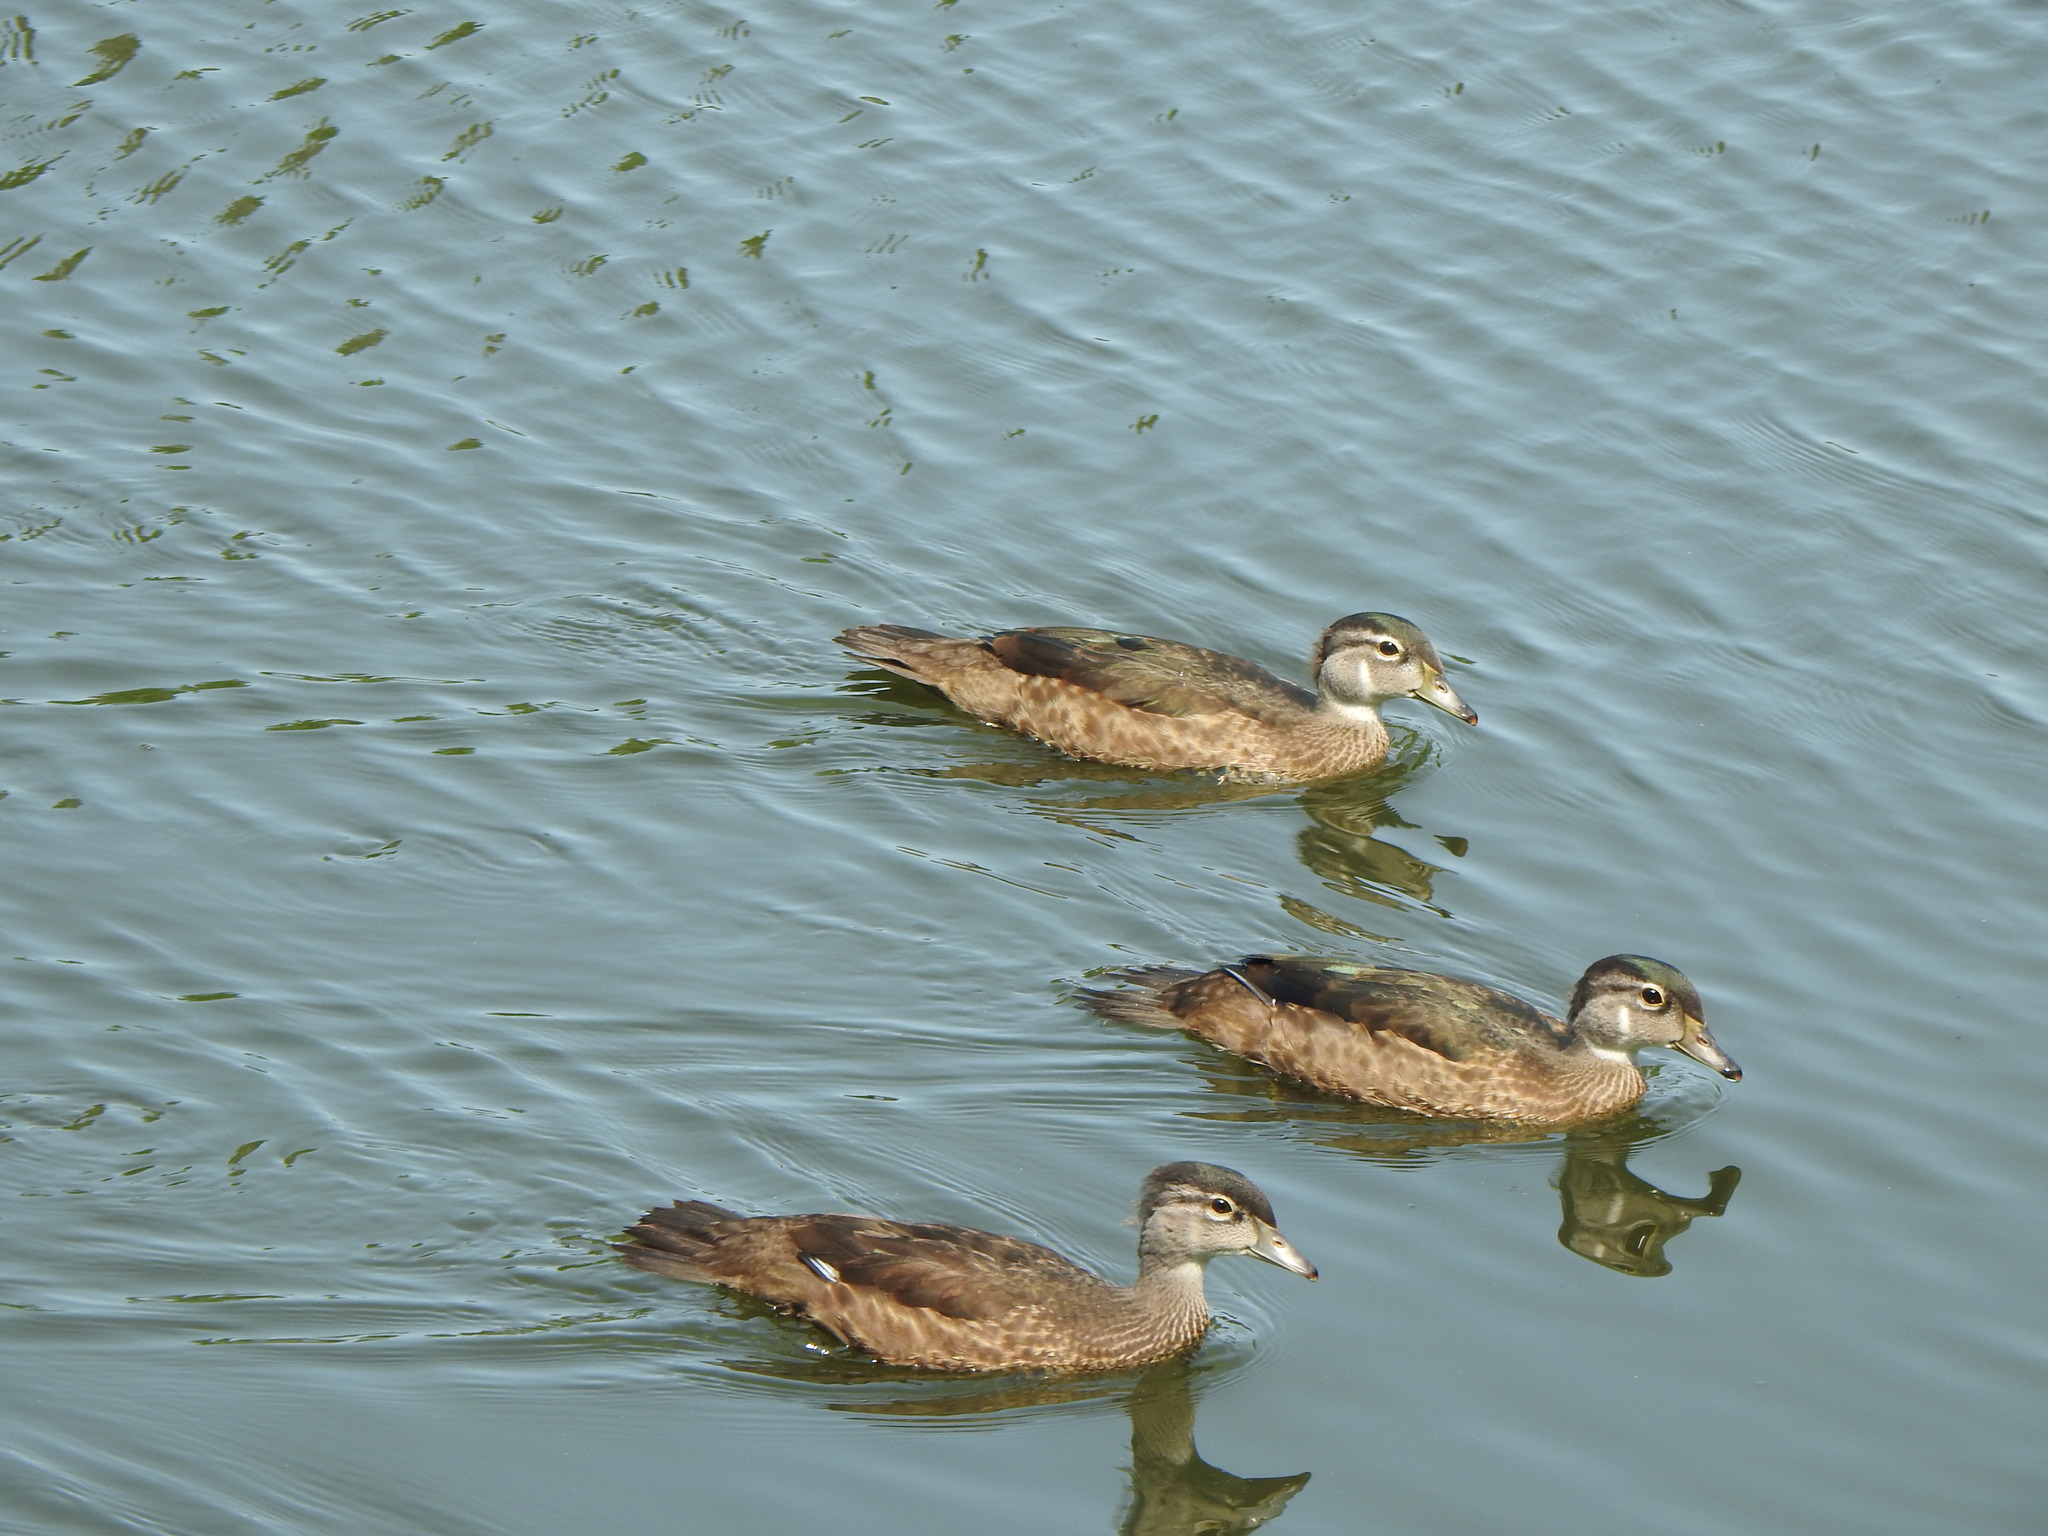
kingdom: Animalia
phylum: Chordata
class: Aves
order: Anseriformes
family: Anatidae
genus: Aix
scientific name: Aix sponsa
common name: Wood duck
